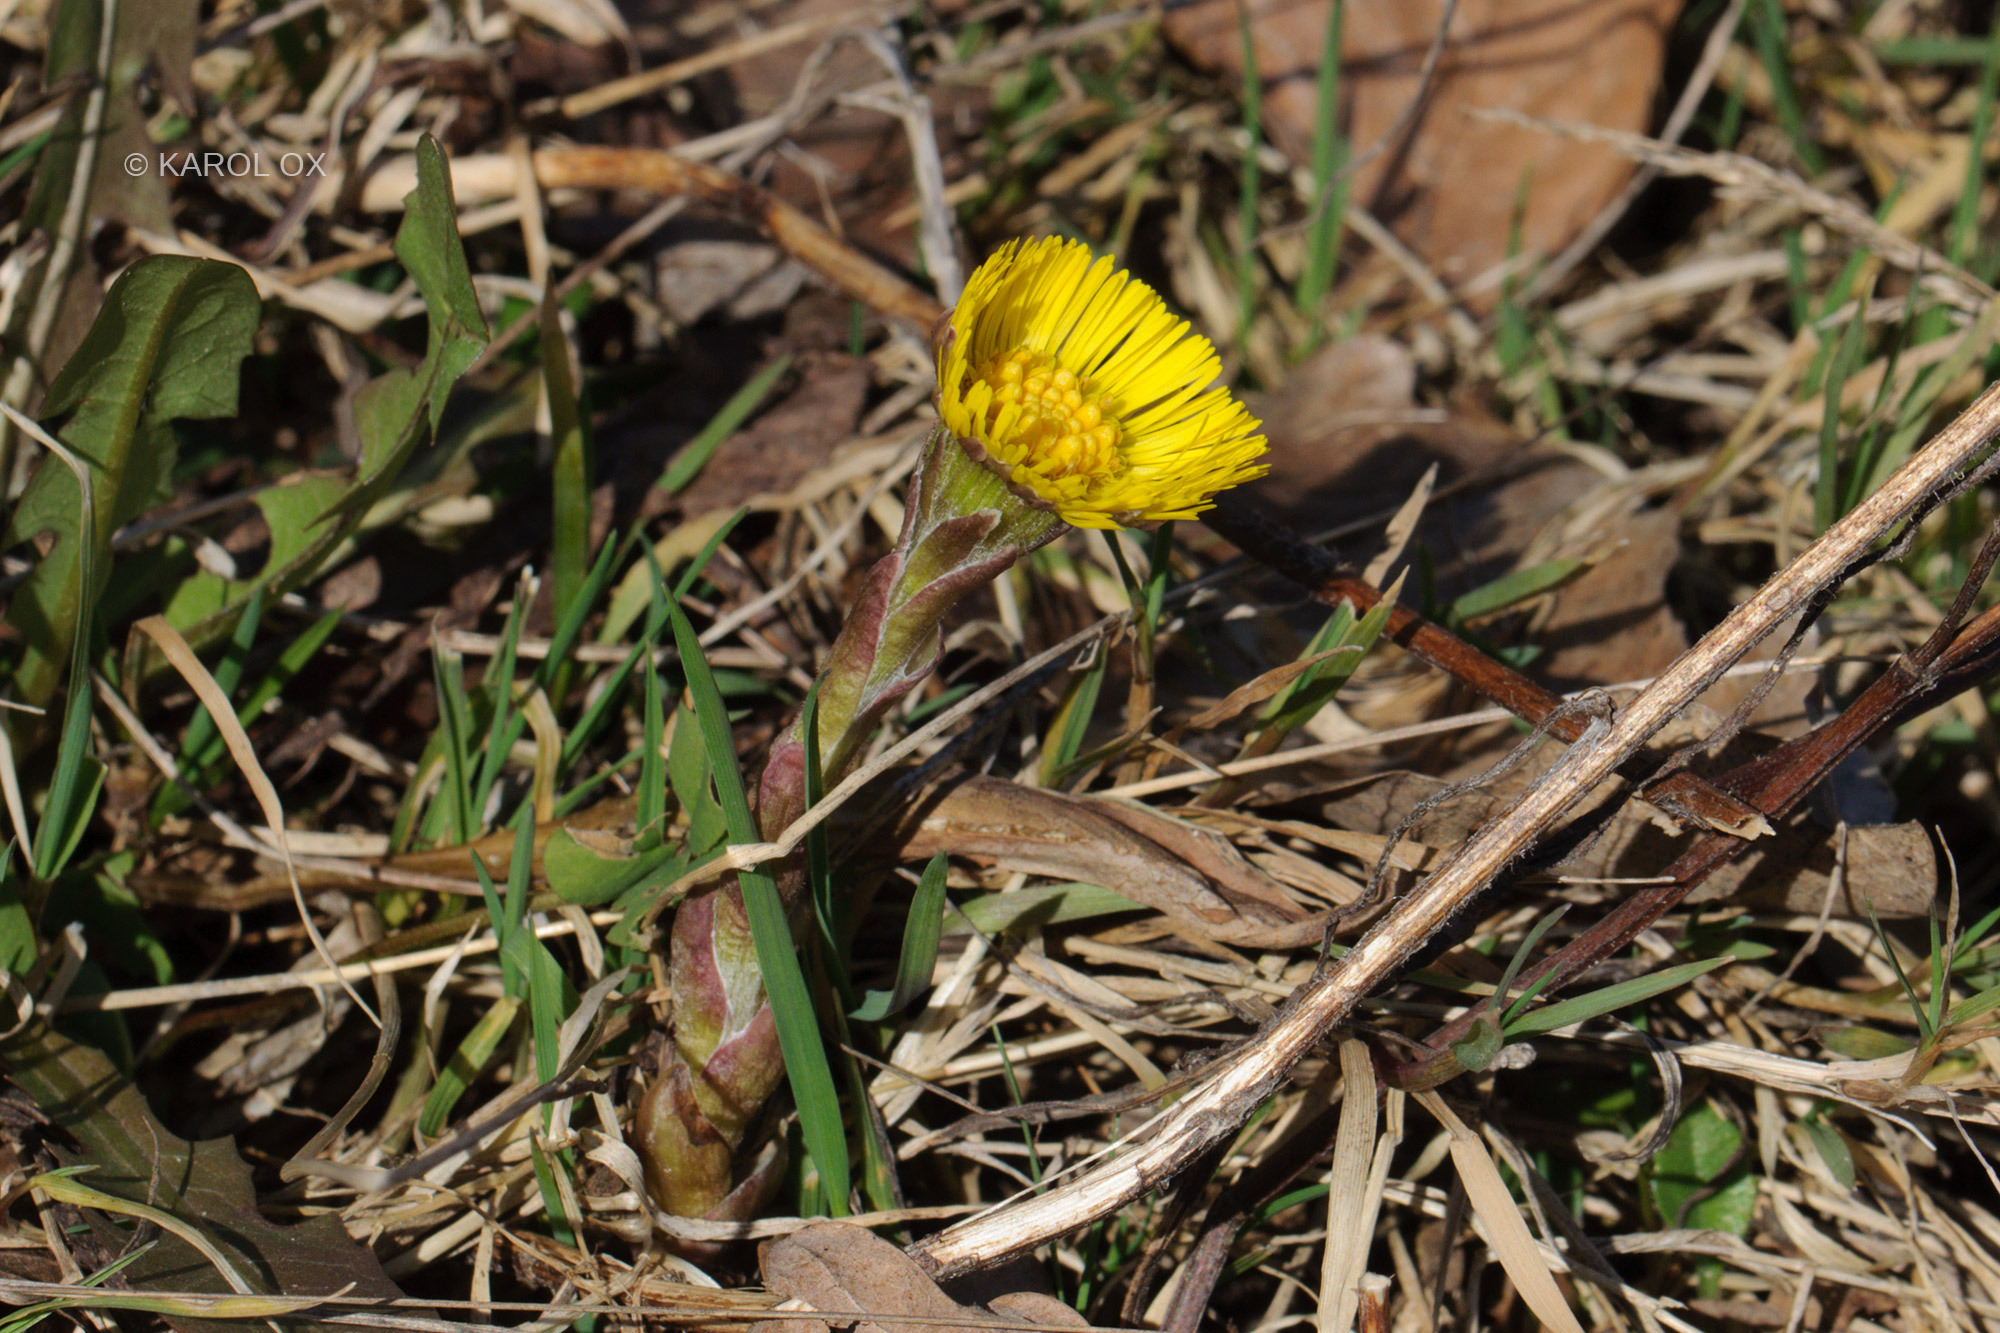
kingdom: Plantae
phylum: Tracheophyta
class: Magnoliopsida
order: Asterales
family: Asteraceae
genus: Tussilago
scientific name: Tussilago farfara
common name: Coltsfoot
